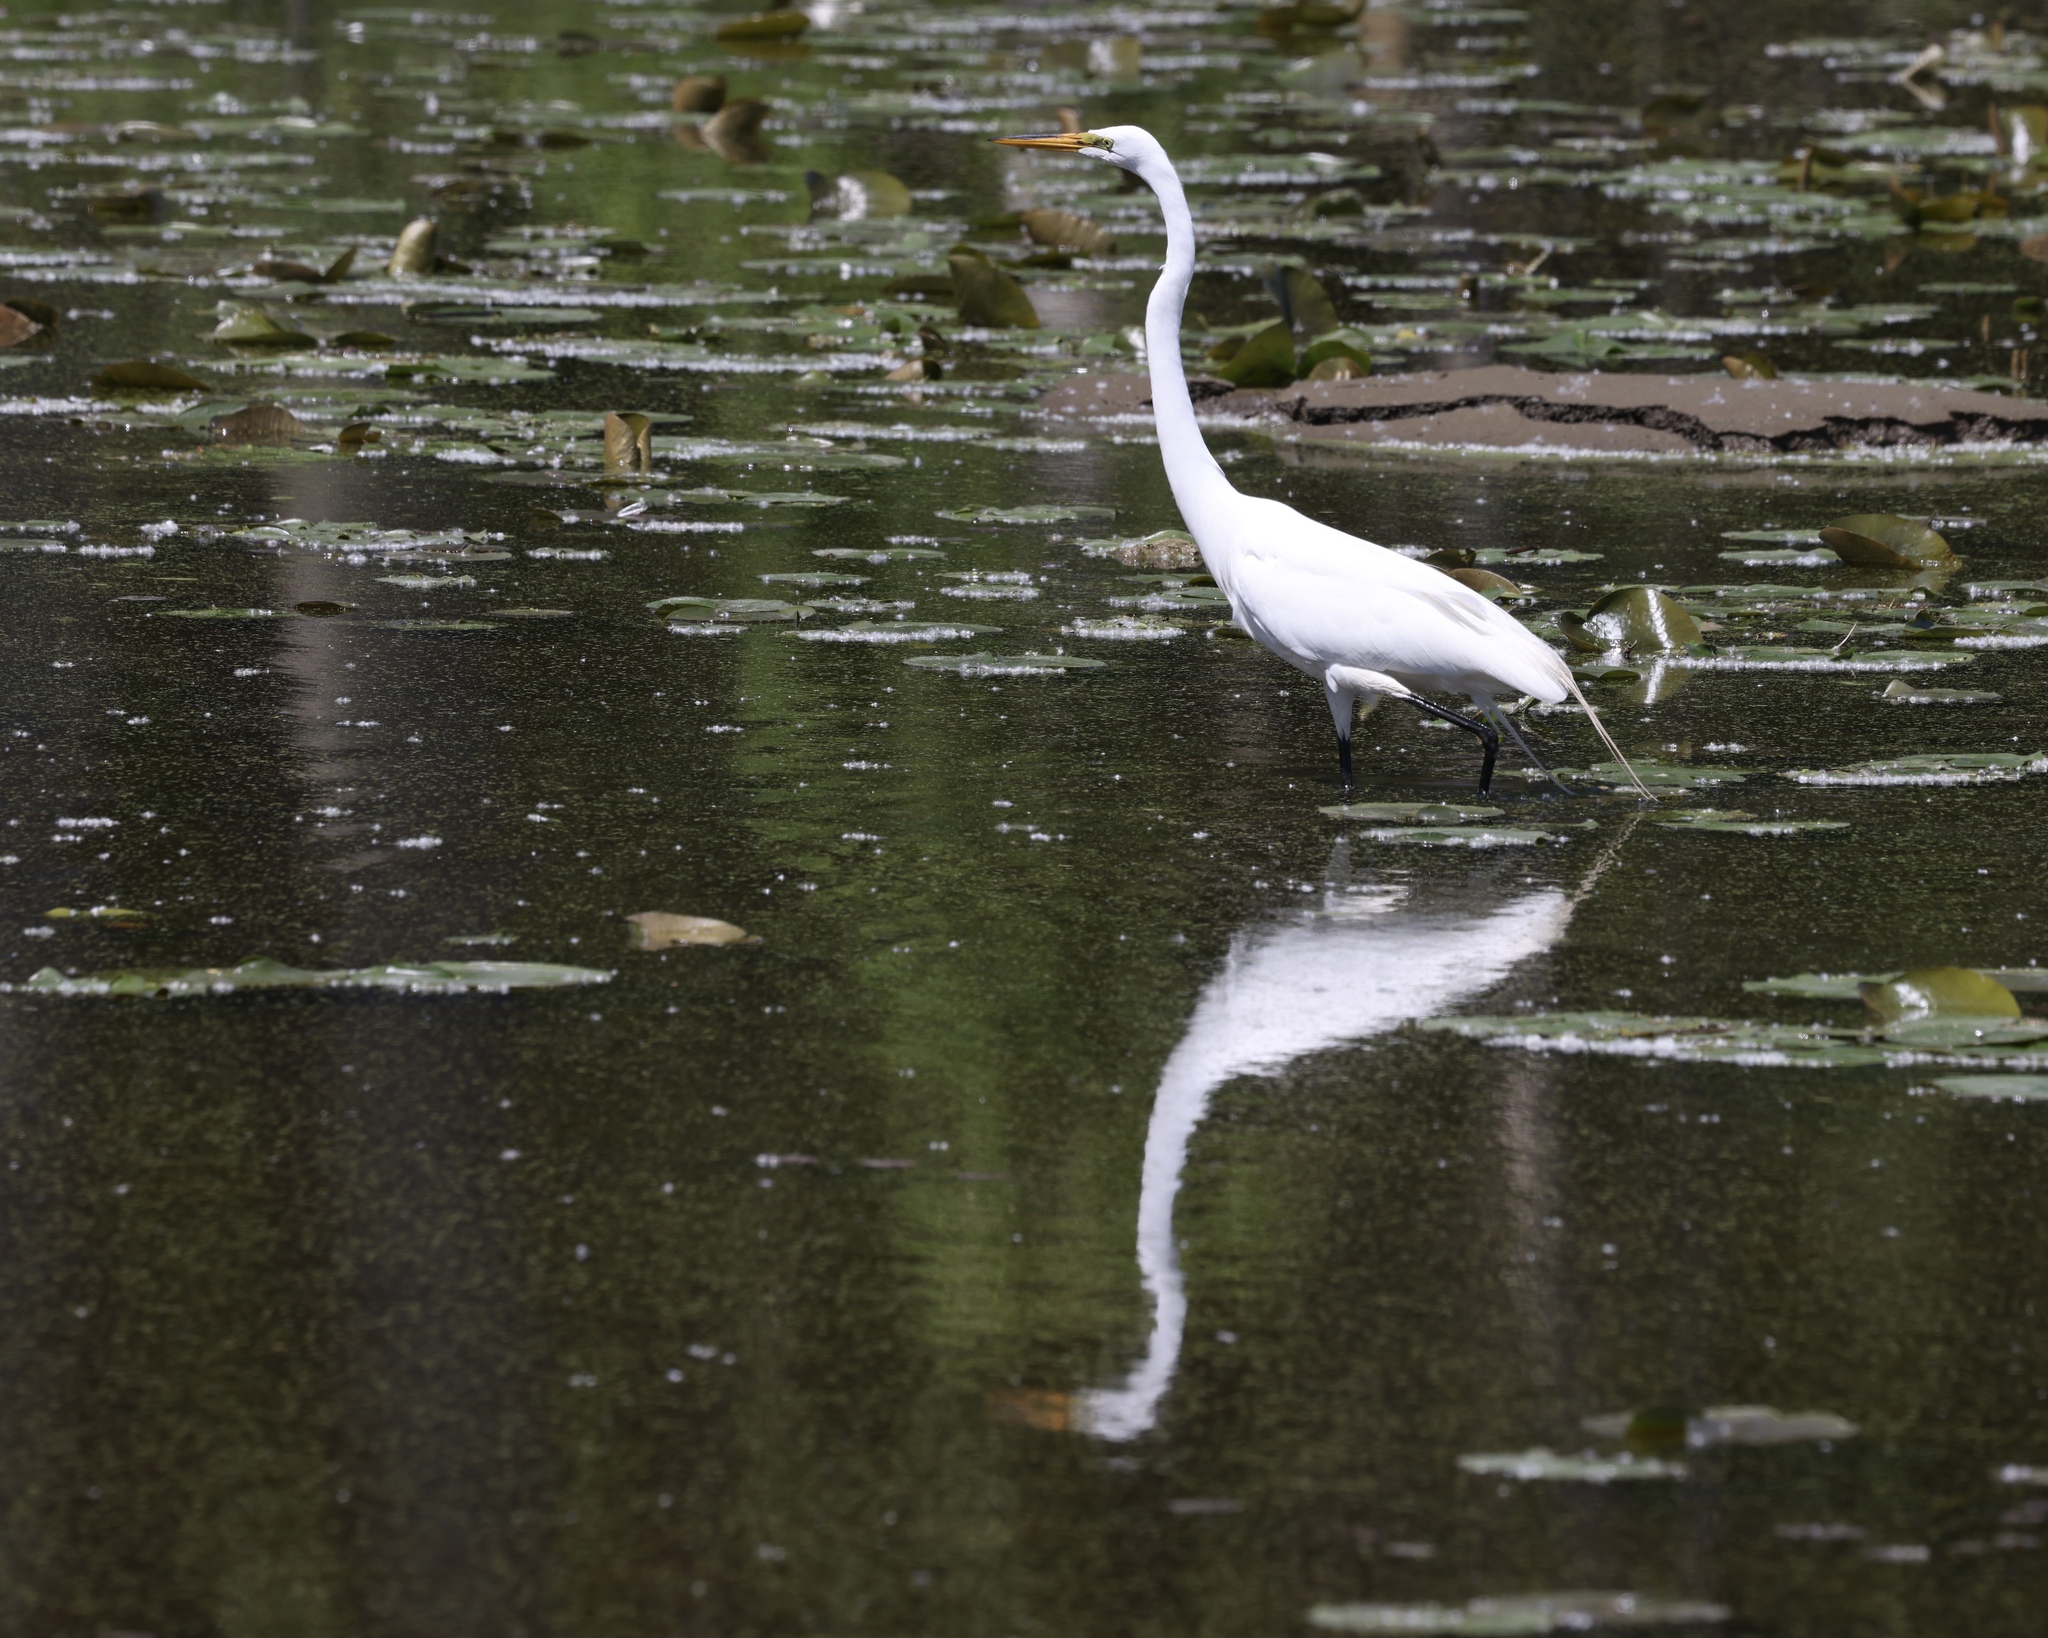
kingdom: Animalia
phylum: Chordata
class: Aves
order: Pelecaniformes
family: Ardeidae
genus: Ardea
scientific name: Ardea alba
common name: Great egret
